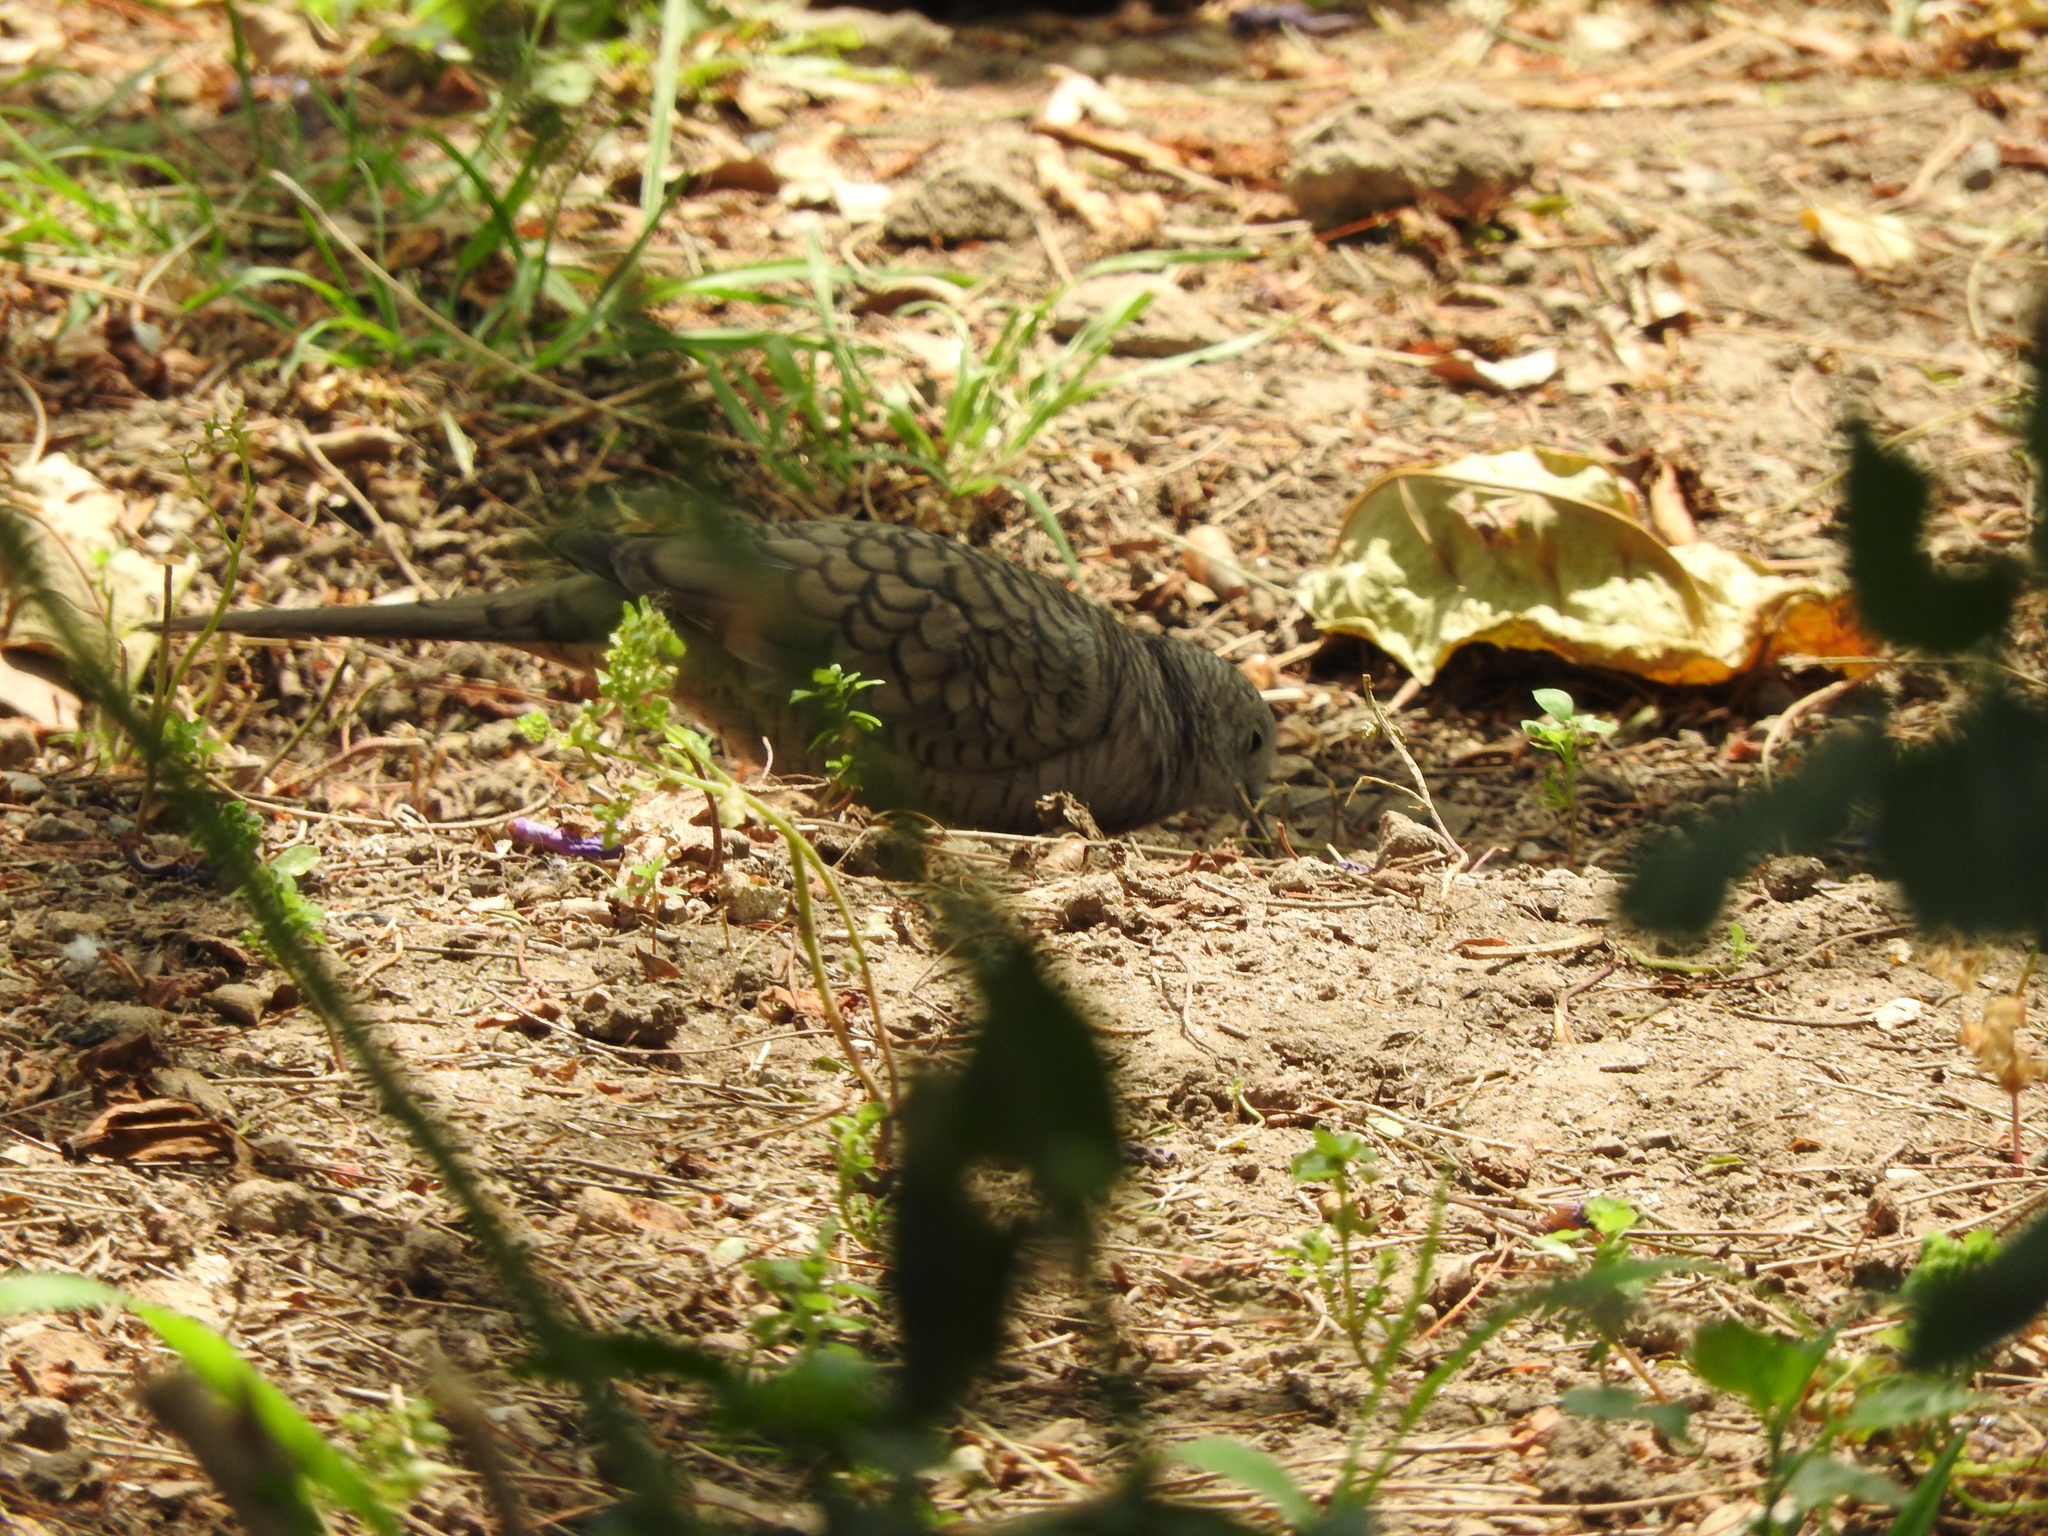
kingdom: Animalia
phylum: Chordata
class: Aves
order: Columbiformes
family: Columbidae
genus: Columbina
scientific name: Columbina inca
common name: Inca dove
